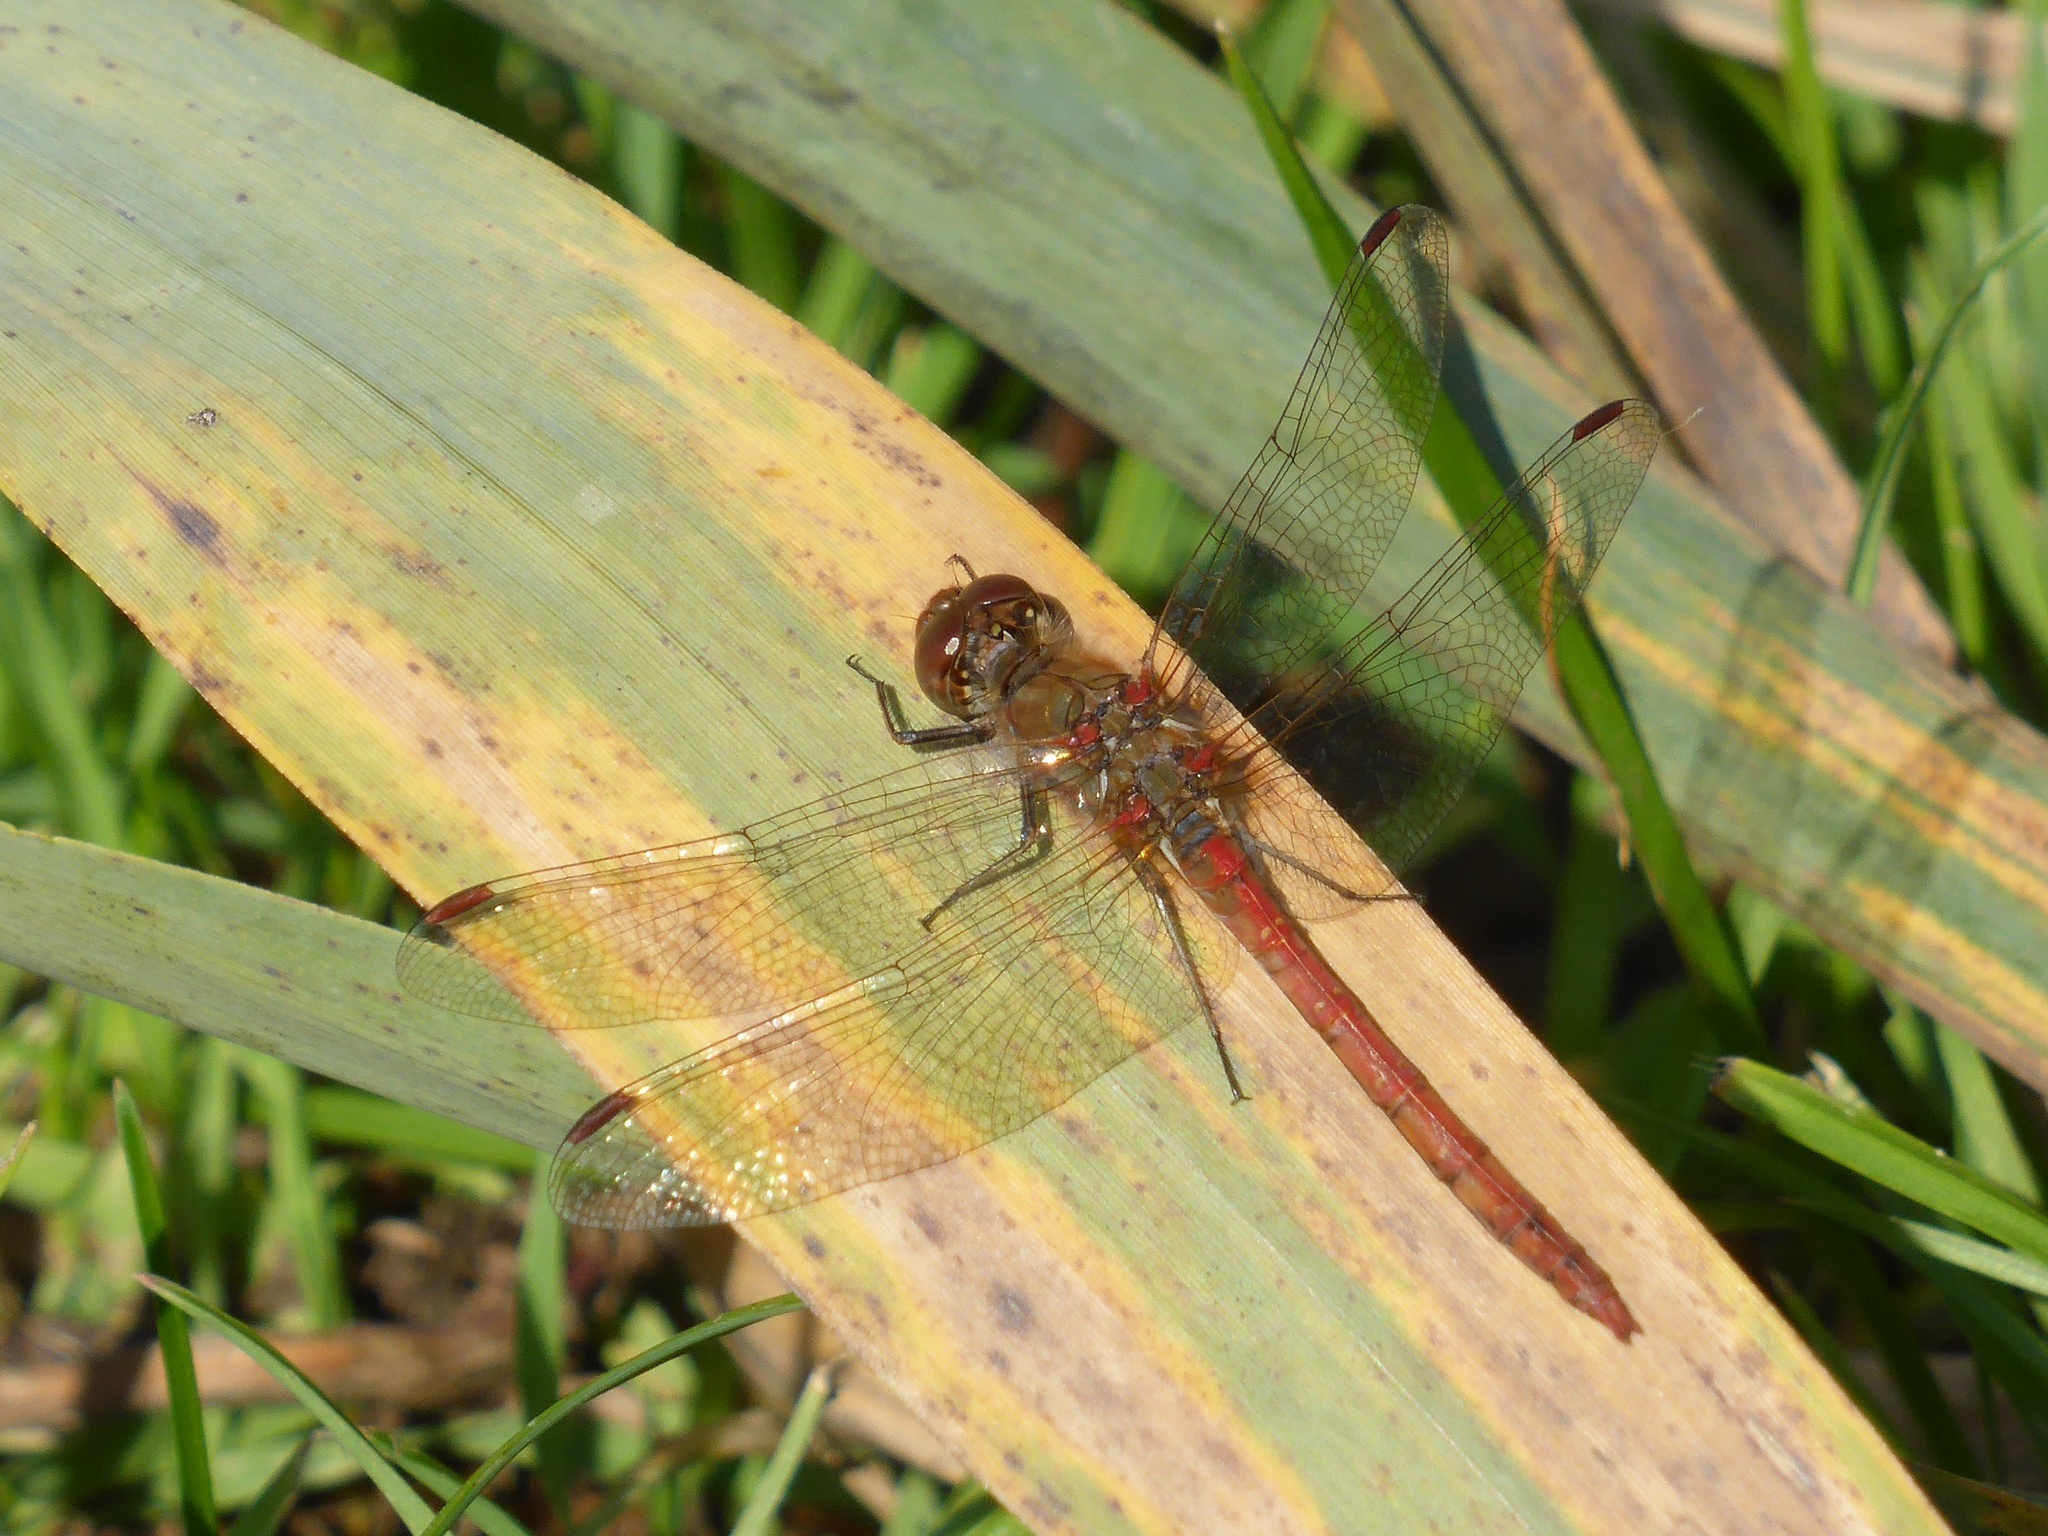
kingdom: Animalia
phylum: Arthropoda
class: Insecta
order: Odonata
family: Libellulidae
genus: Sympetrum
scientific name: Sympetrum striolatum
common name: Common darter
